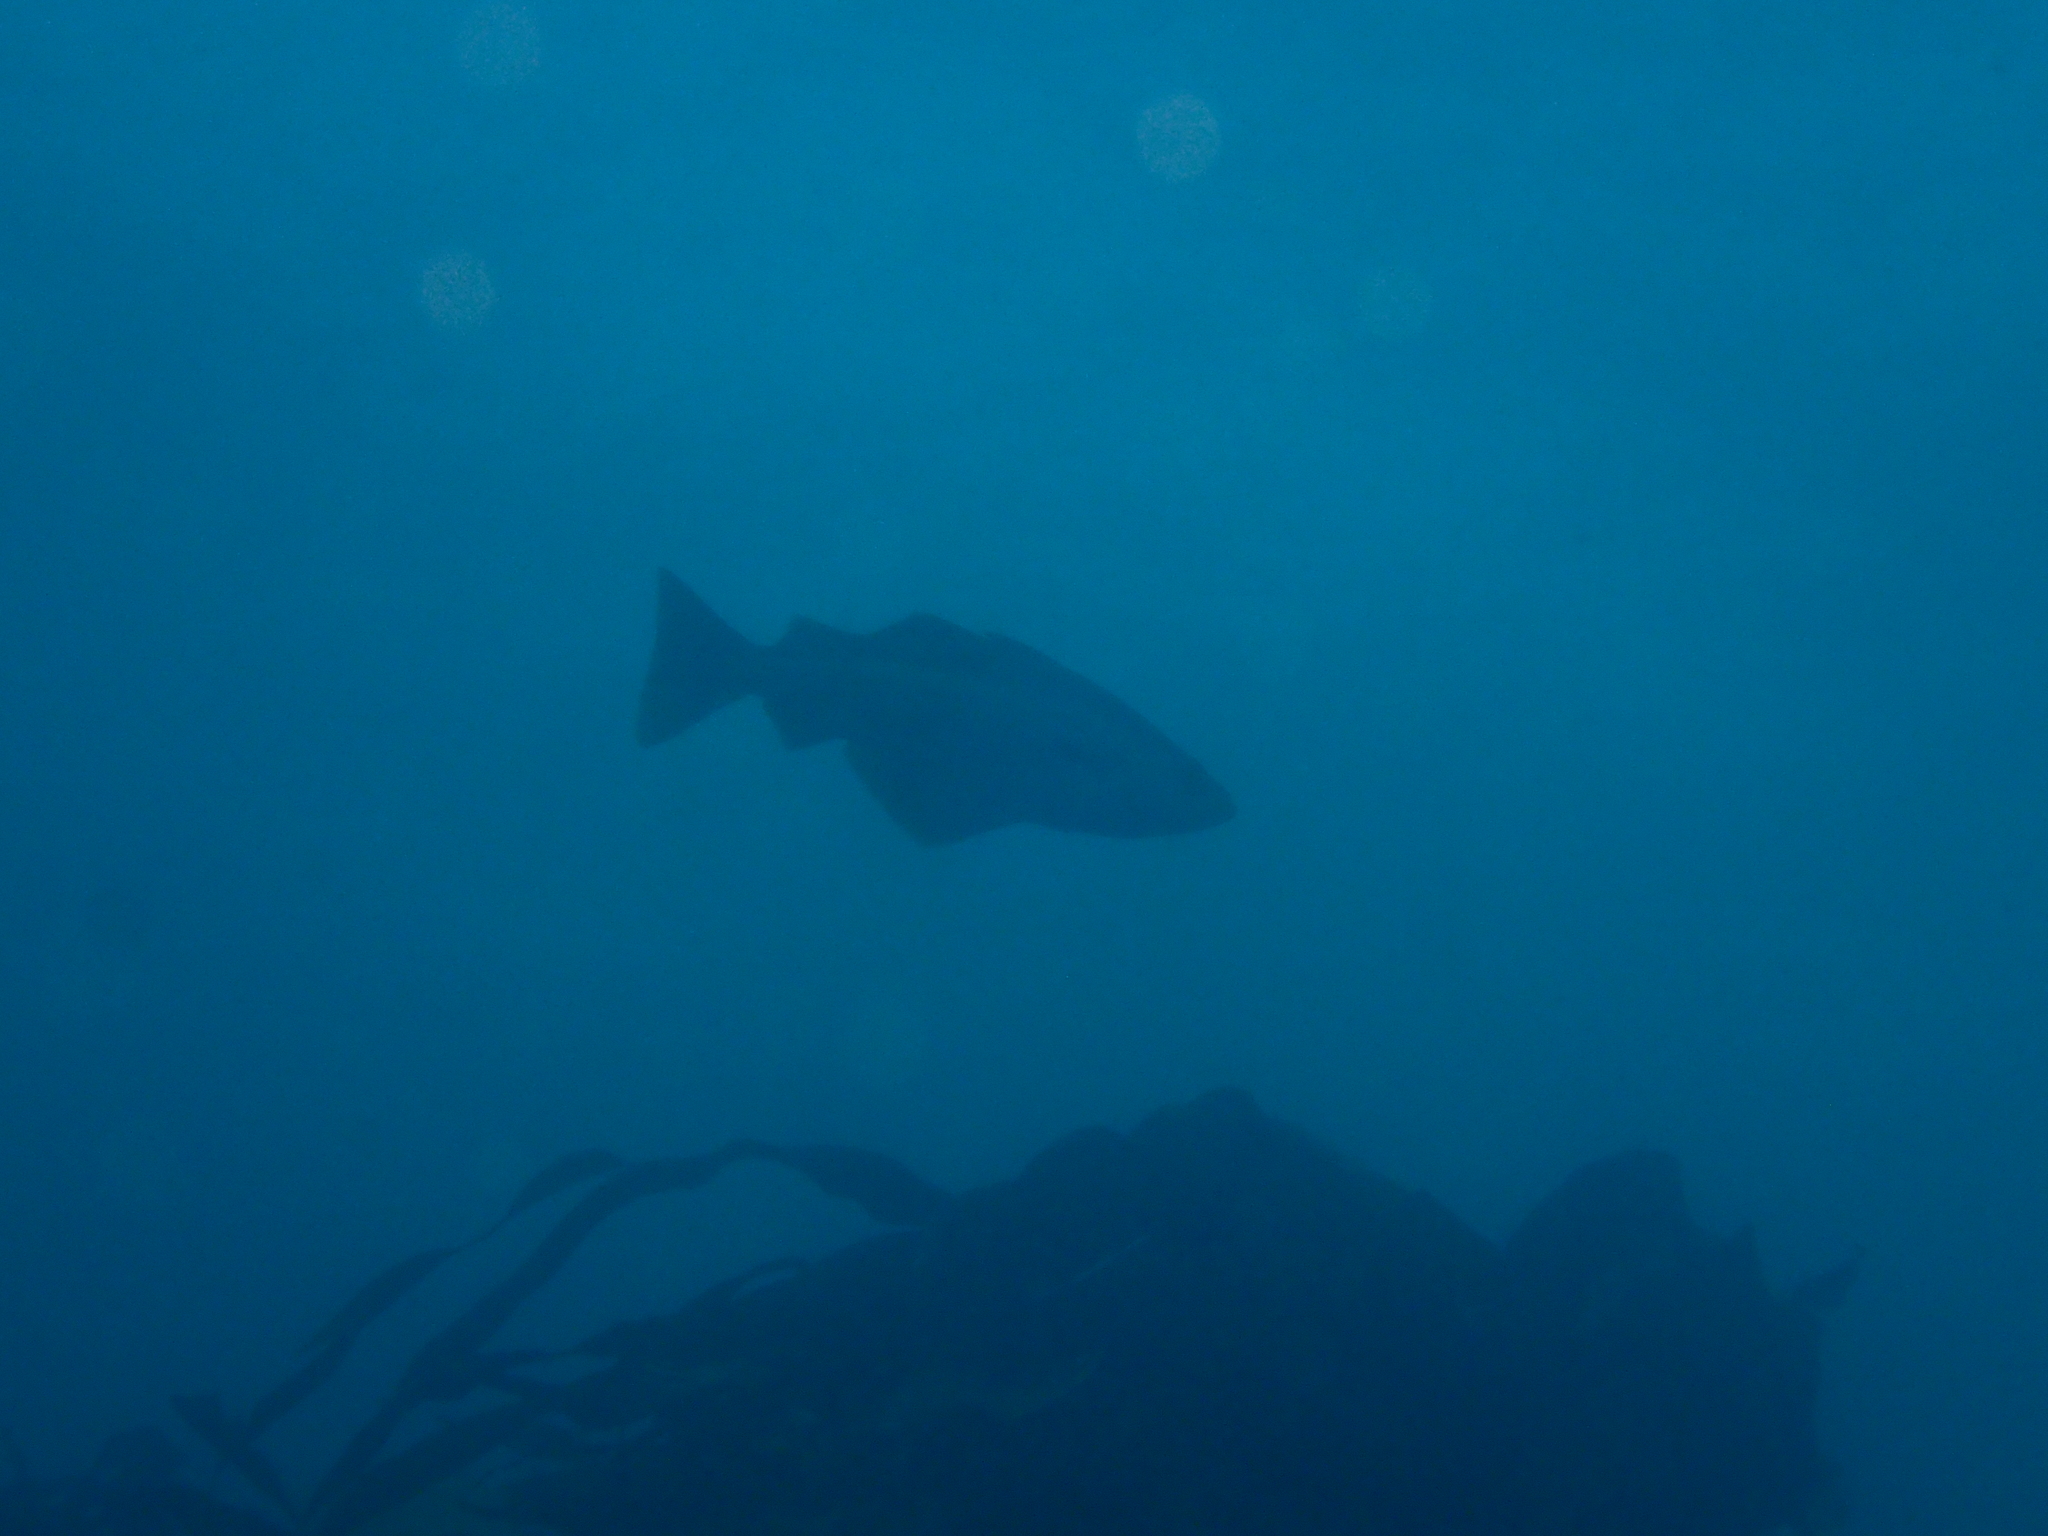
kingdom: Animalia
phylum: Chordata
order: Gadiformes
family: Gadidae
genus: Pollachius
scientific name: Pollachius pollachius
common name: Pollack
